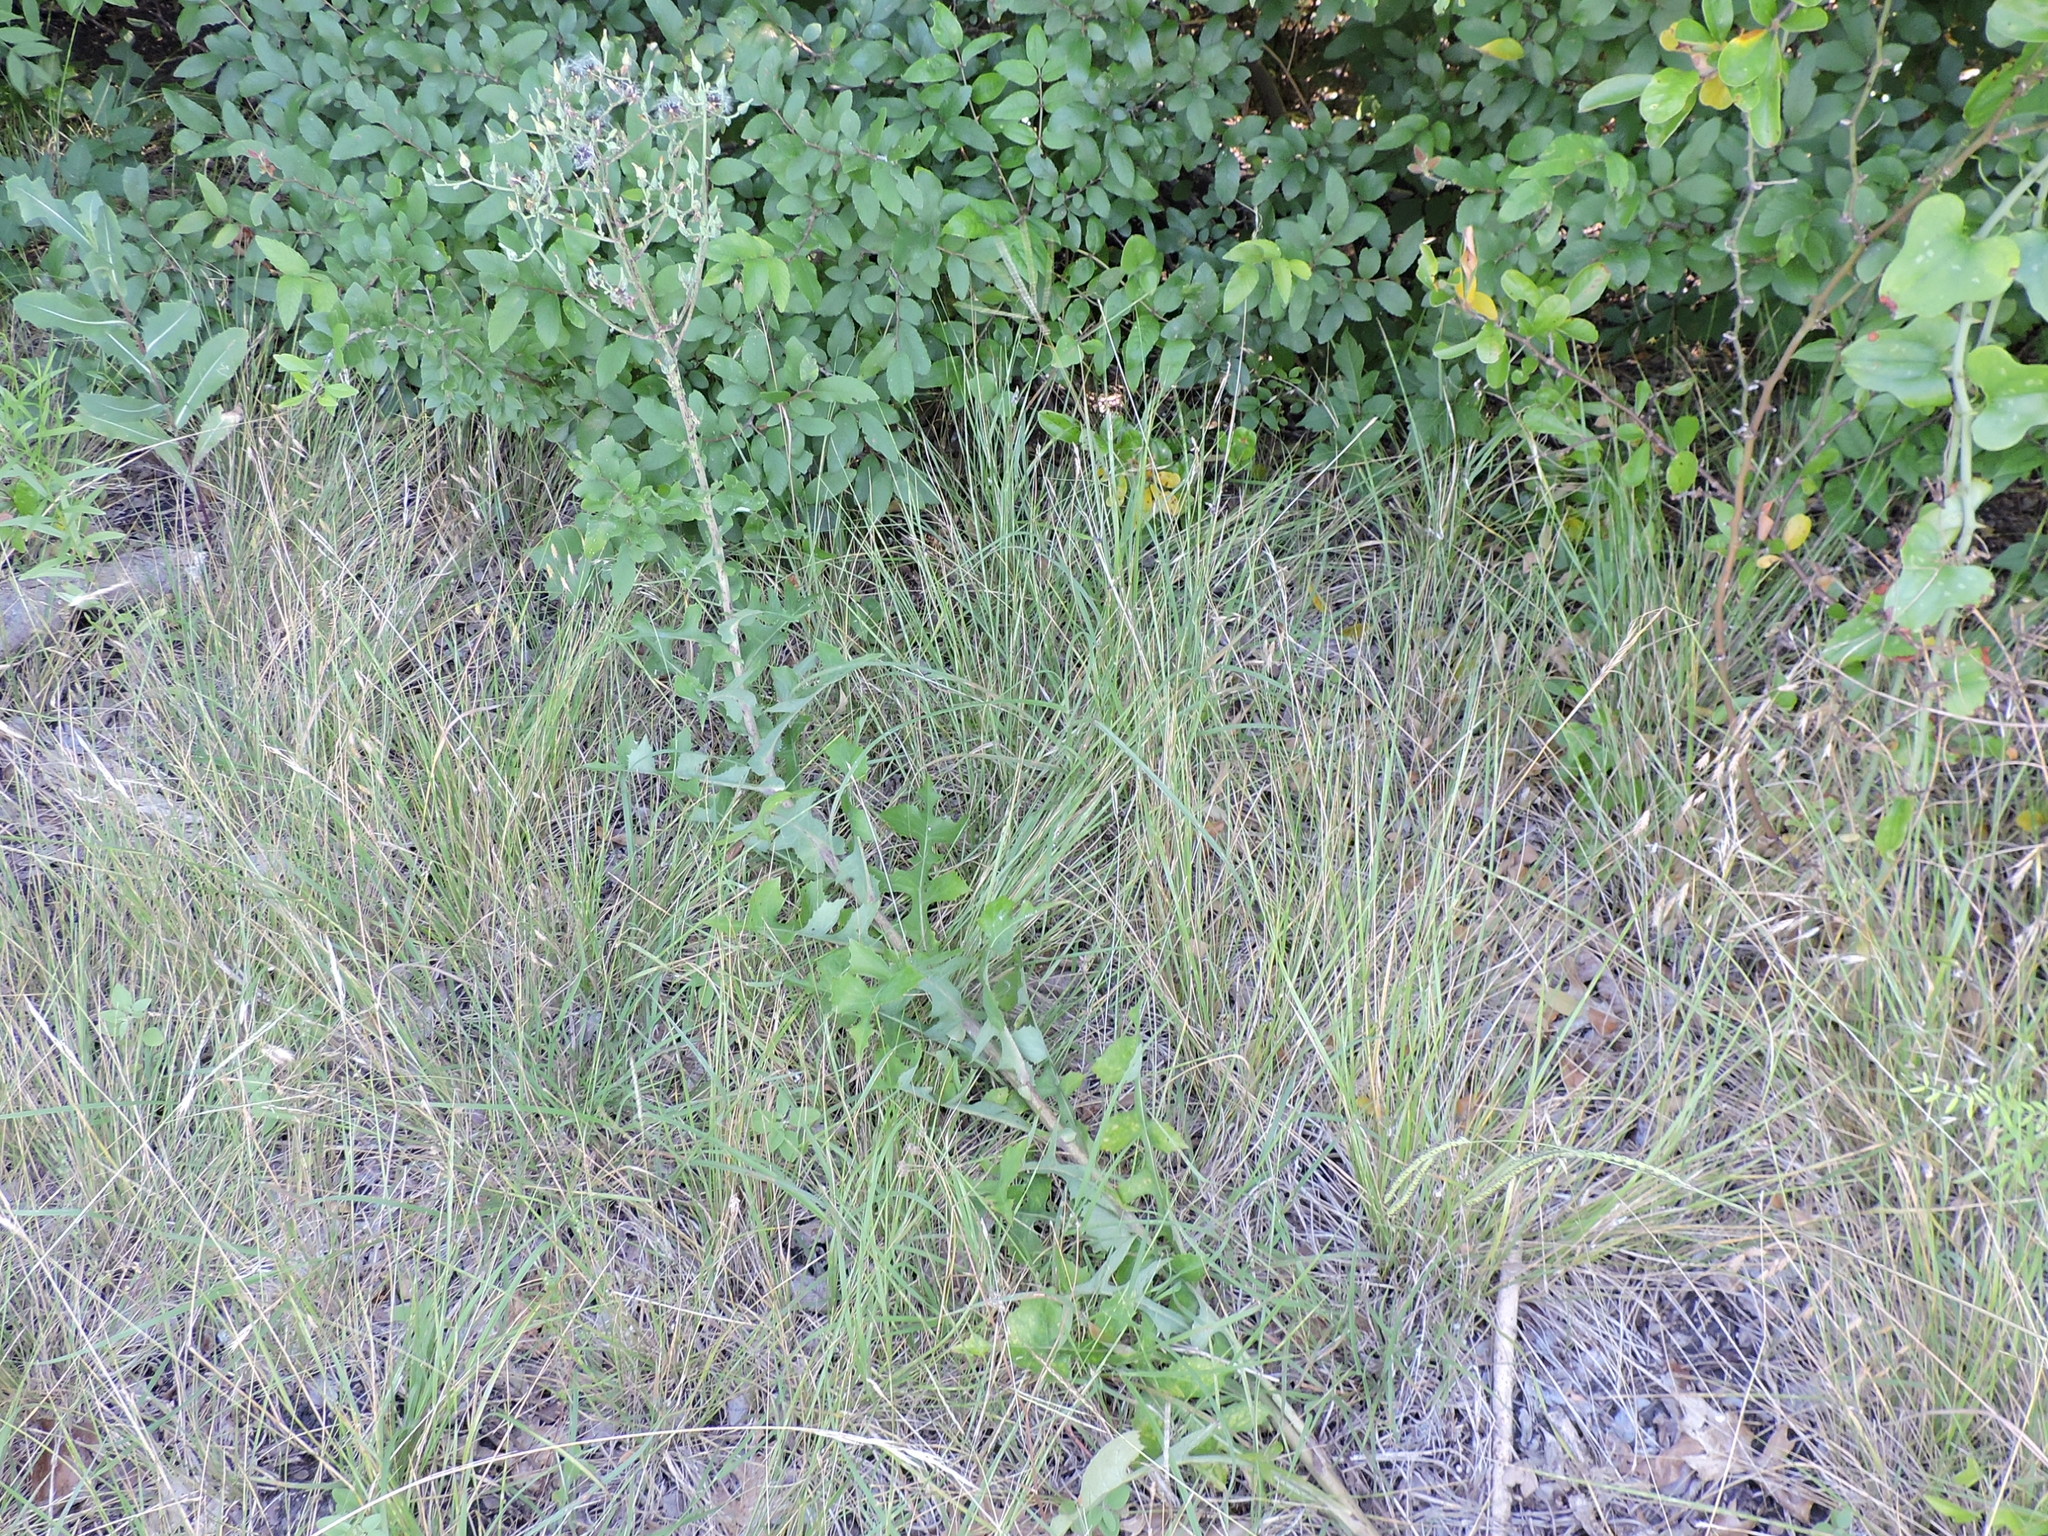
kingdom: Plantae
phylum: Tracheophyta
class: Magnoliopsida
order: Asterales
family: Asteraceae
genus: Lactuca
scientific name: Lactuca serriola
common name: Prickly lettuce
